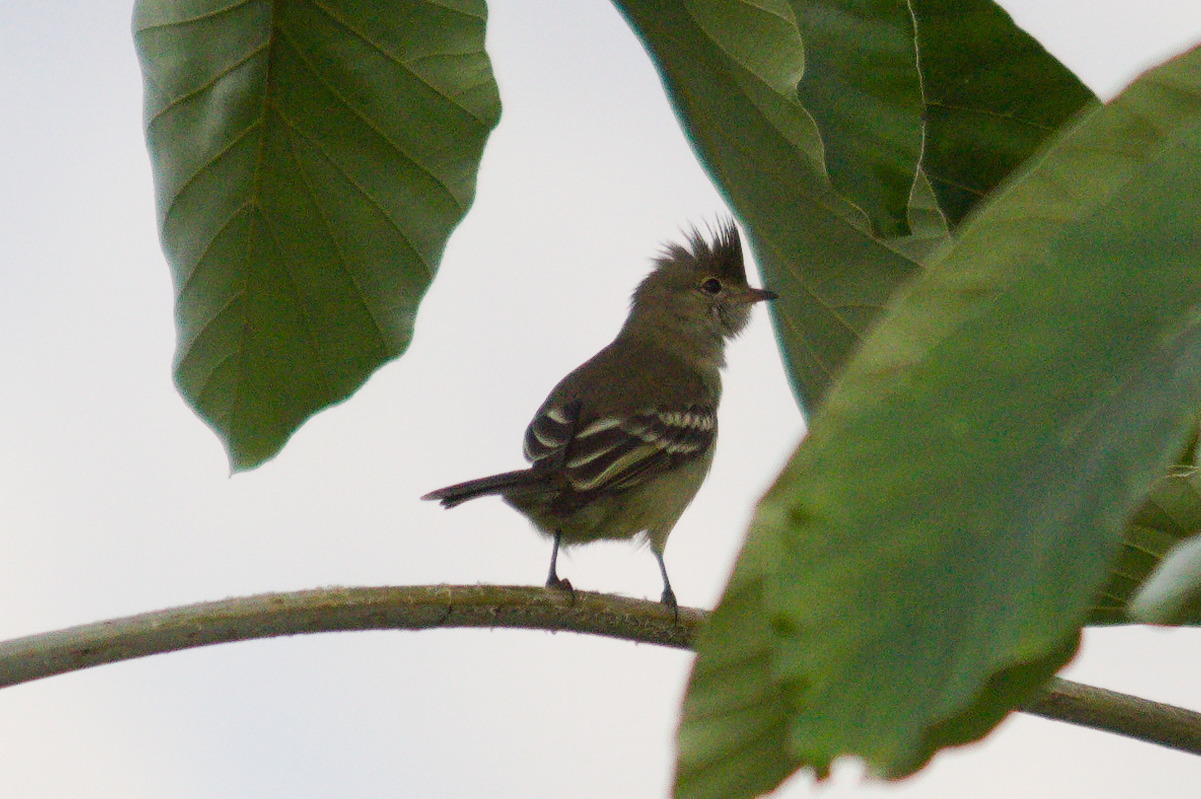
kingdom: Animalia
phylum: Chordata
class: Aves
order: Passeriformes
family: Tyrannidae
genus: Elaenia
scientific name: Elaenia flavogaster
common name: Yellow-bellied elaenia
